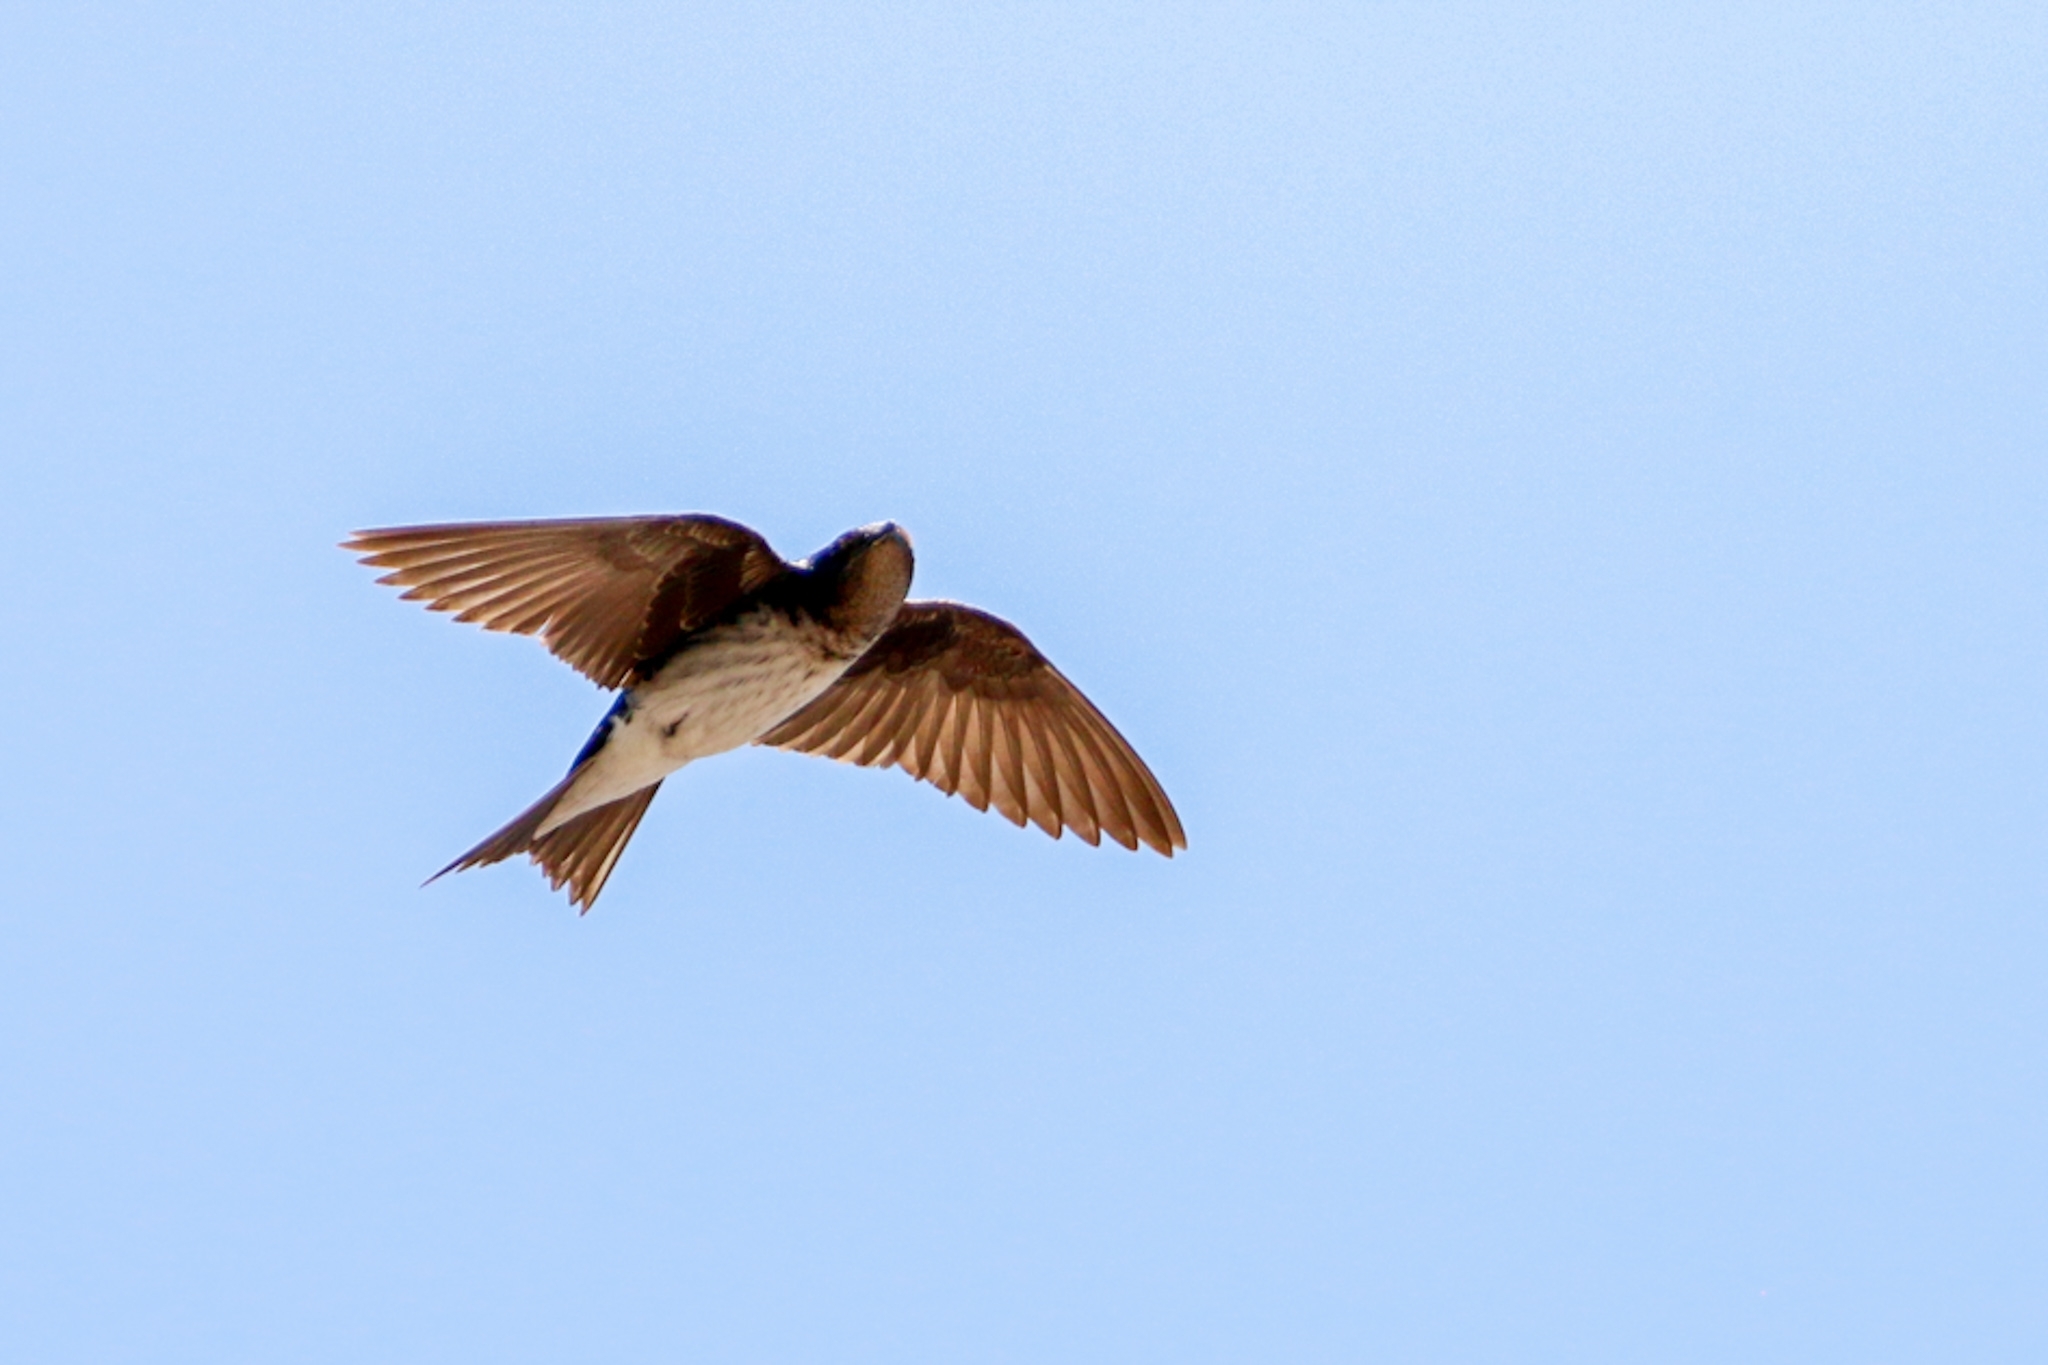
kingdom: Animalia
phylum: Chordata
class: Aves
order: Passeriformes
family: Hirundinidae
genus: Progne
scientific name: Progne chalybea
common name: Grey-breasted martin
